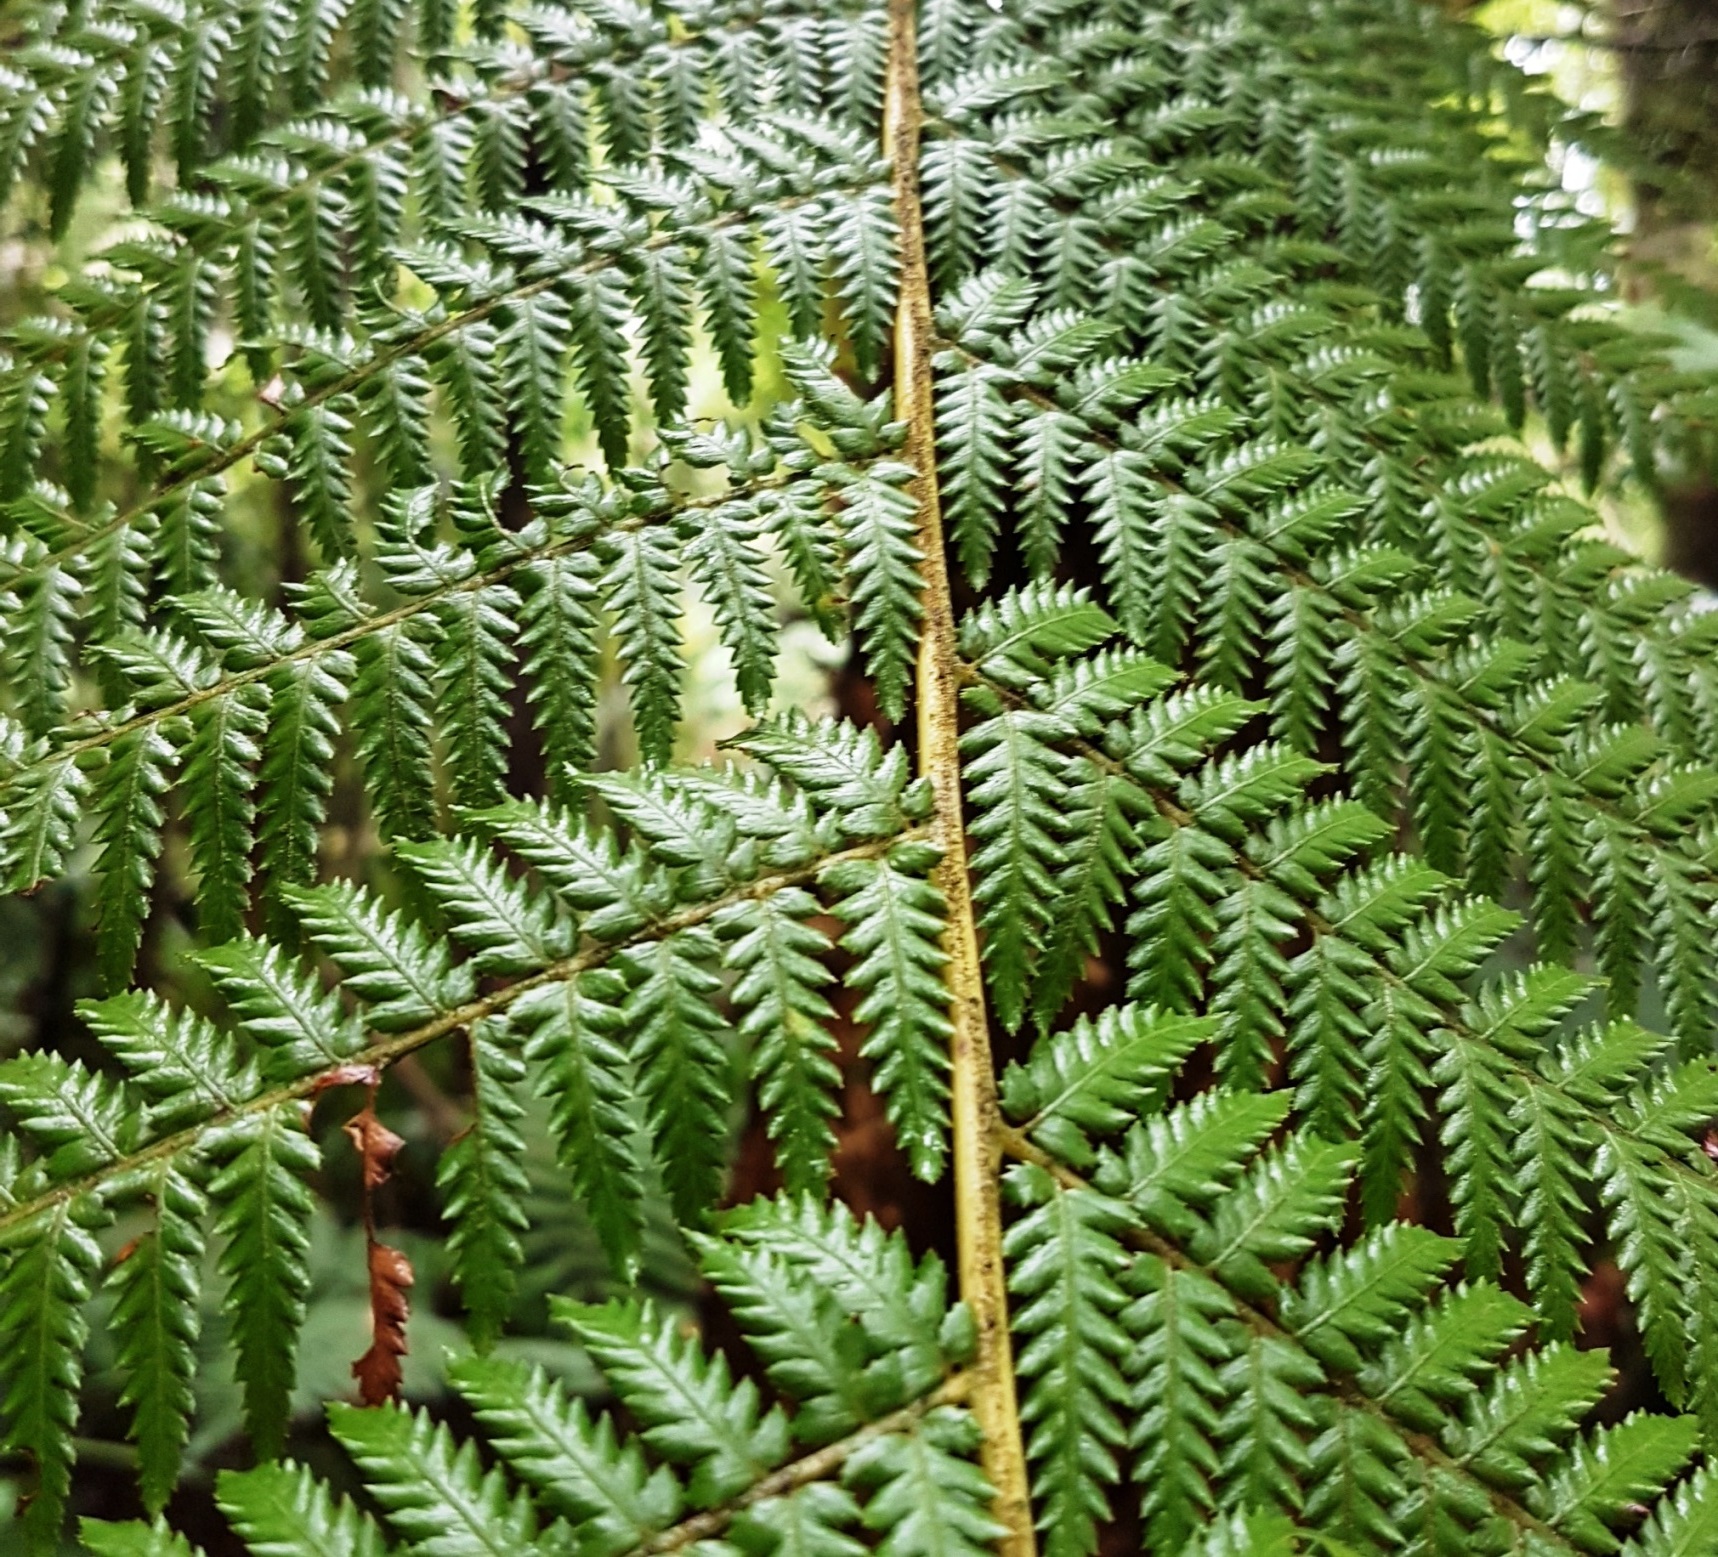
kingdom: Plantae
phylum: Tracheophyta
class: Polypodiopsida
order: Cyatheales
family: Dicksoniaceae
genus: Dicksonia
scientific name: Dicksonia fibrosa
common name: Golden tree fern
